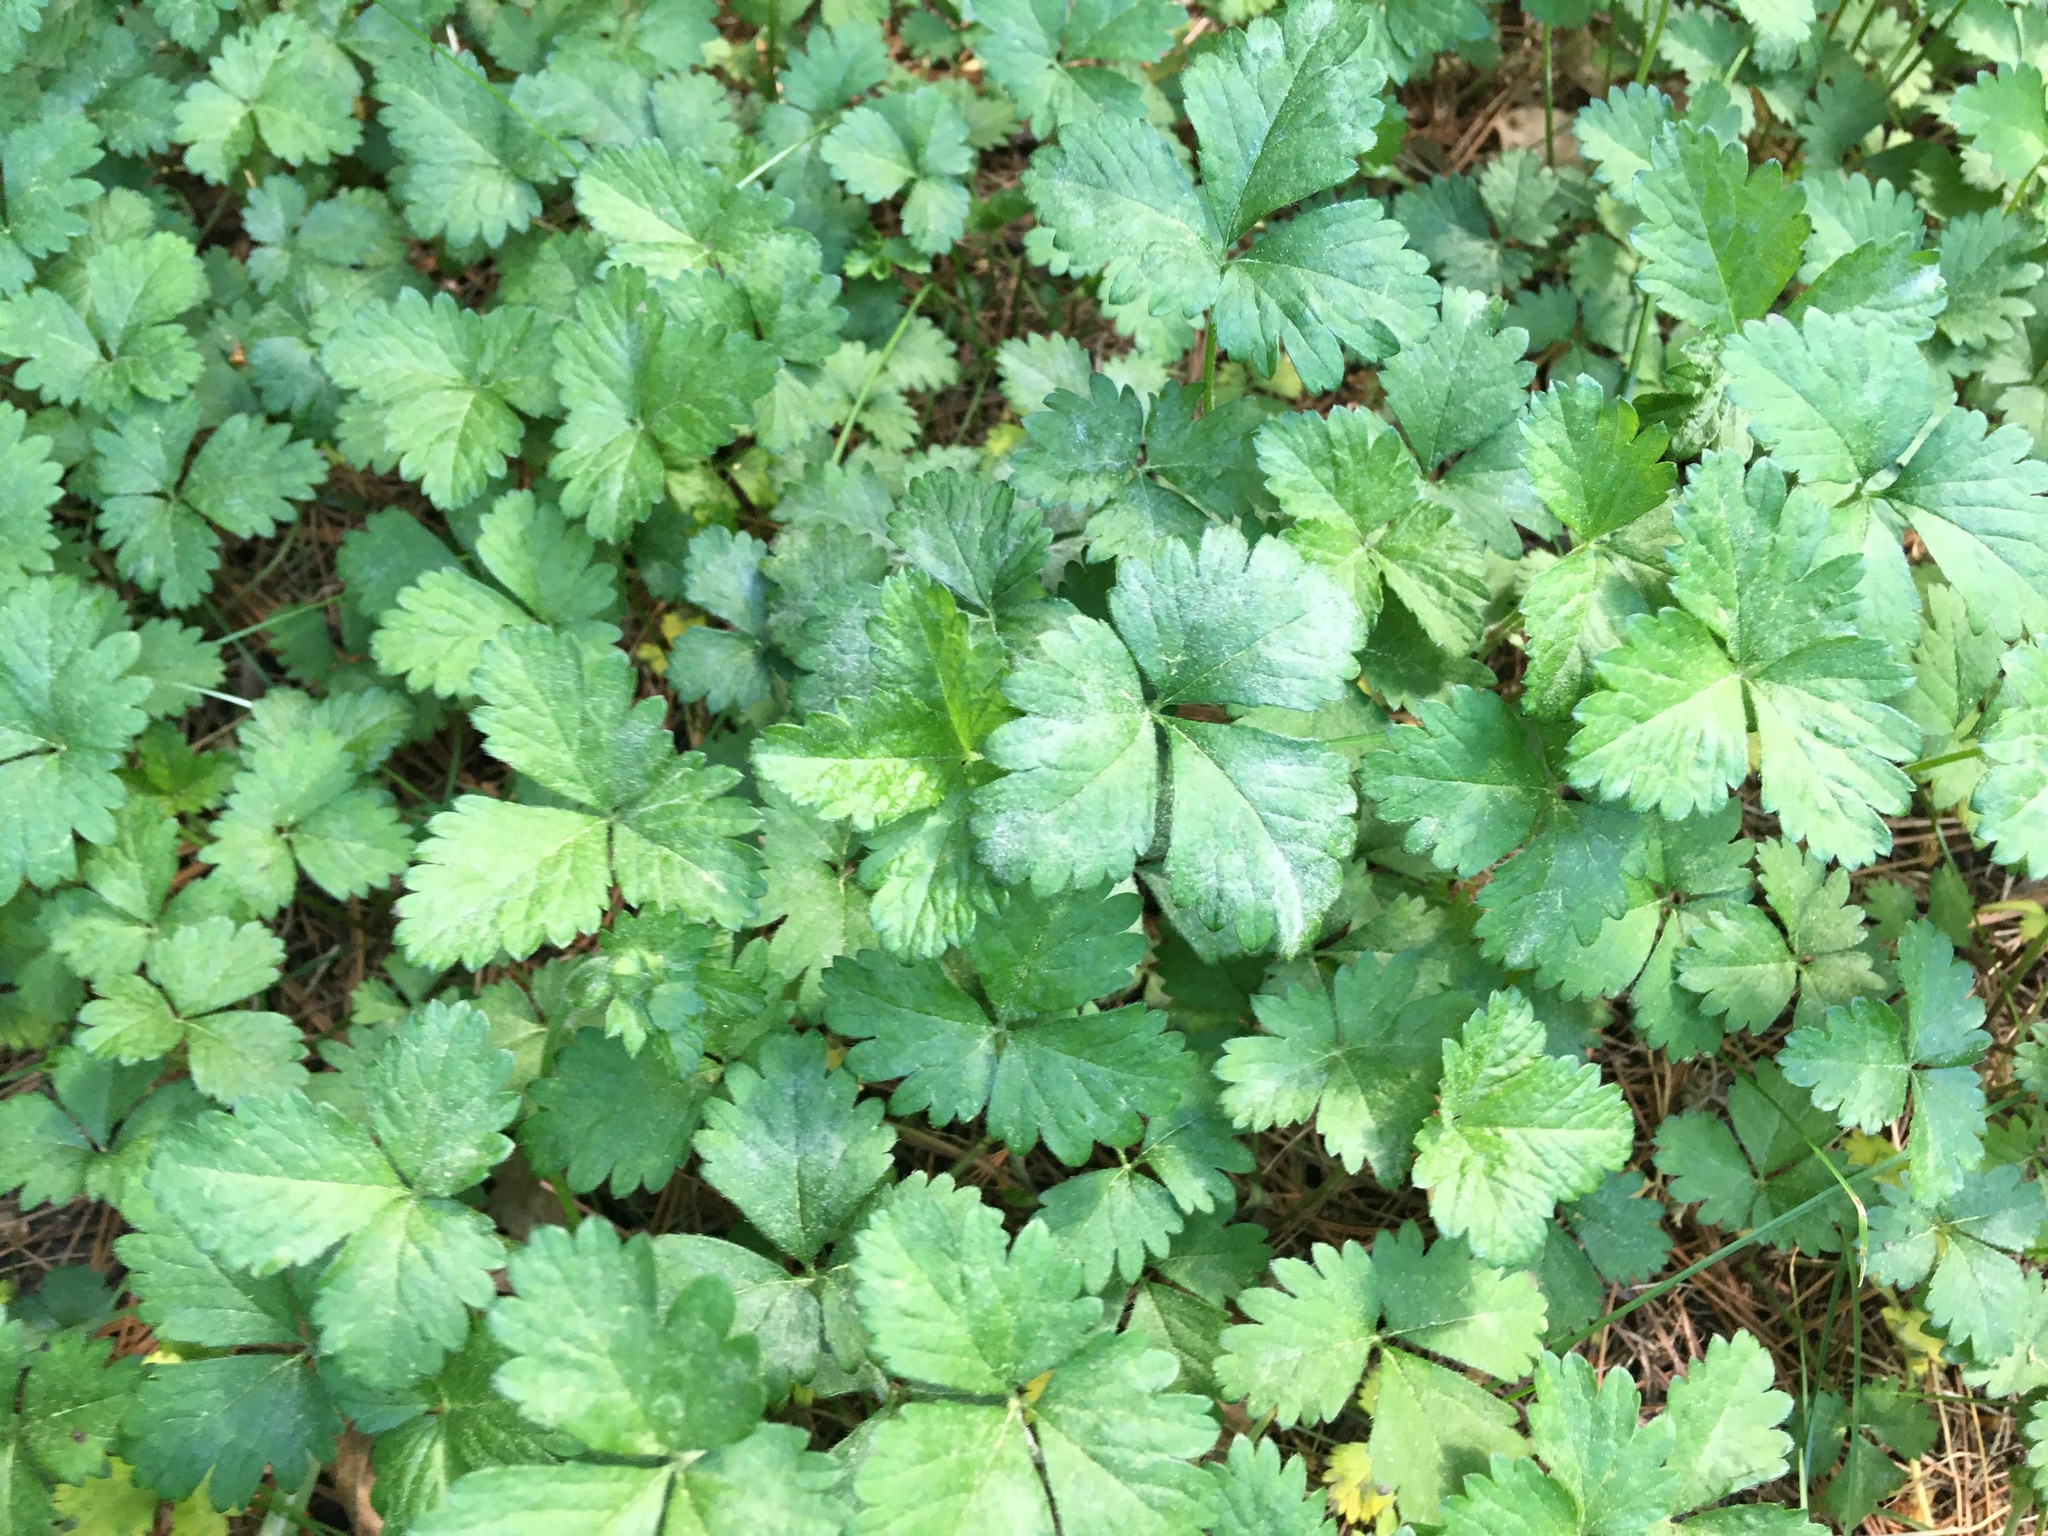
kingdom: Plantae
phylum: Tracheophyta
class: Magnoliopsida
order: Rosales
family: Rosaceae
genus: Potentilla
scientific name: Potentilla indica
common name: Yellow-flowered strawberry
